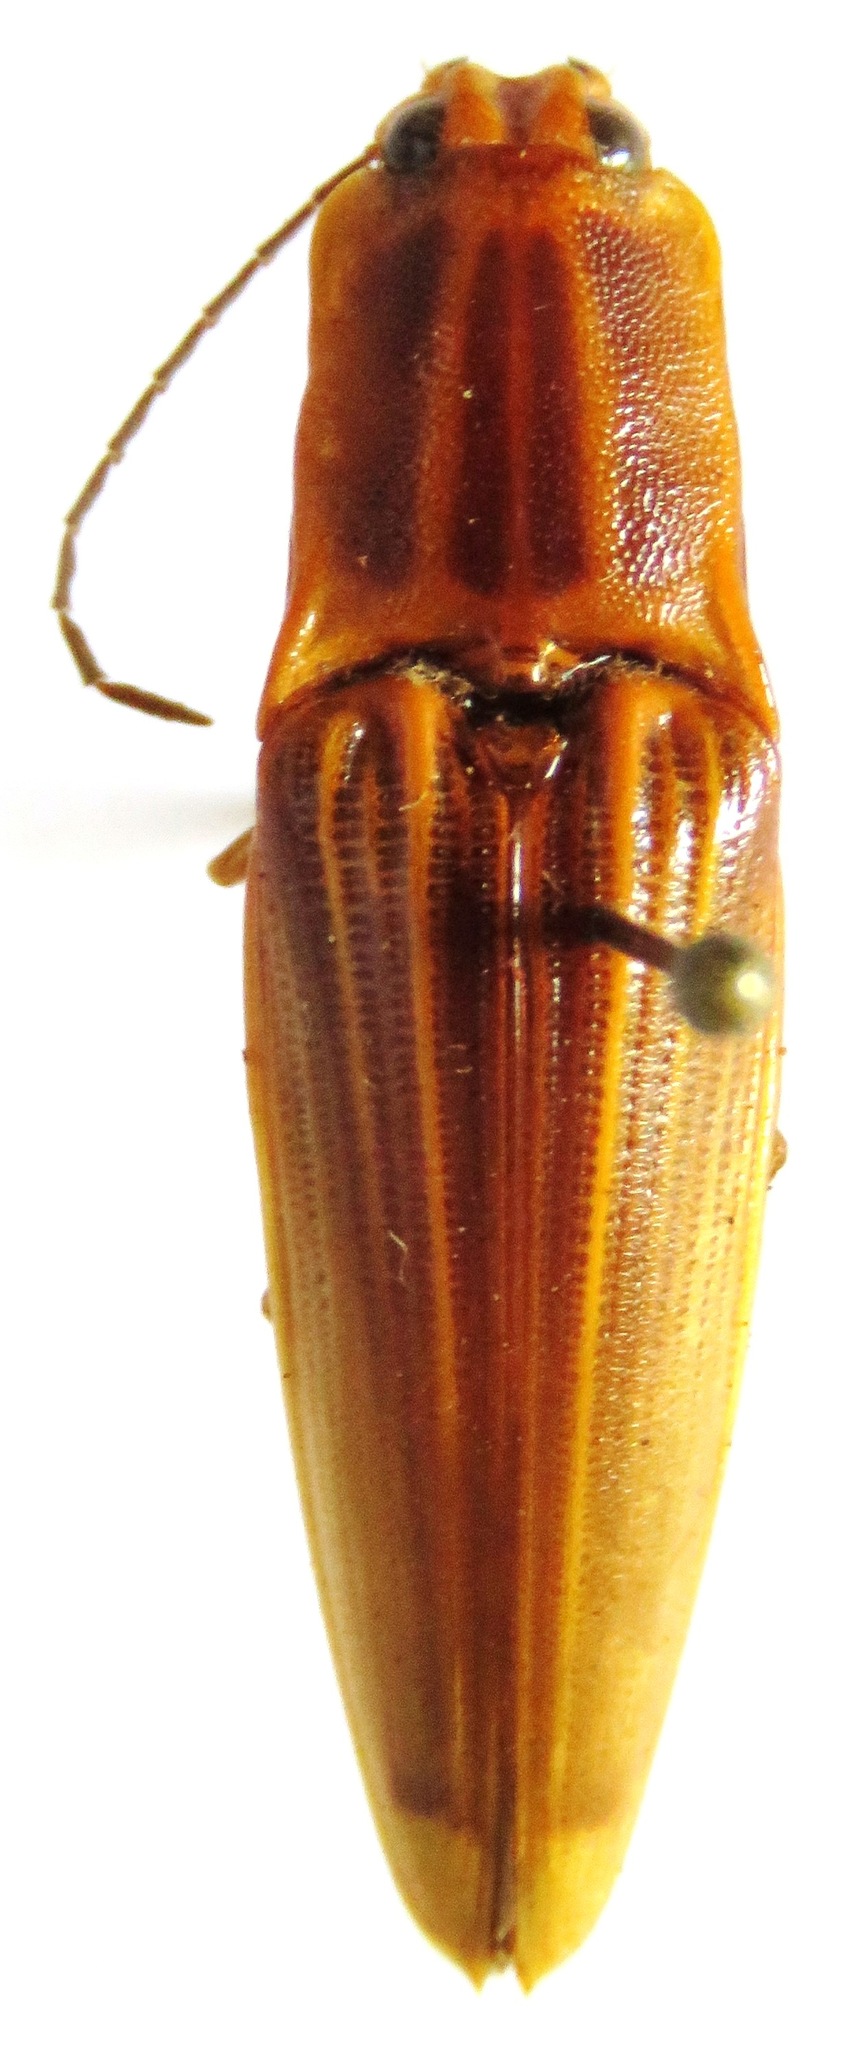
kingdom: Animalia
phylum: Arthropoda
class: Insecta
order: Coleoptera
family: Elateridae
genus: Semiotus
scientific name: Semiotus ligneus
